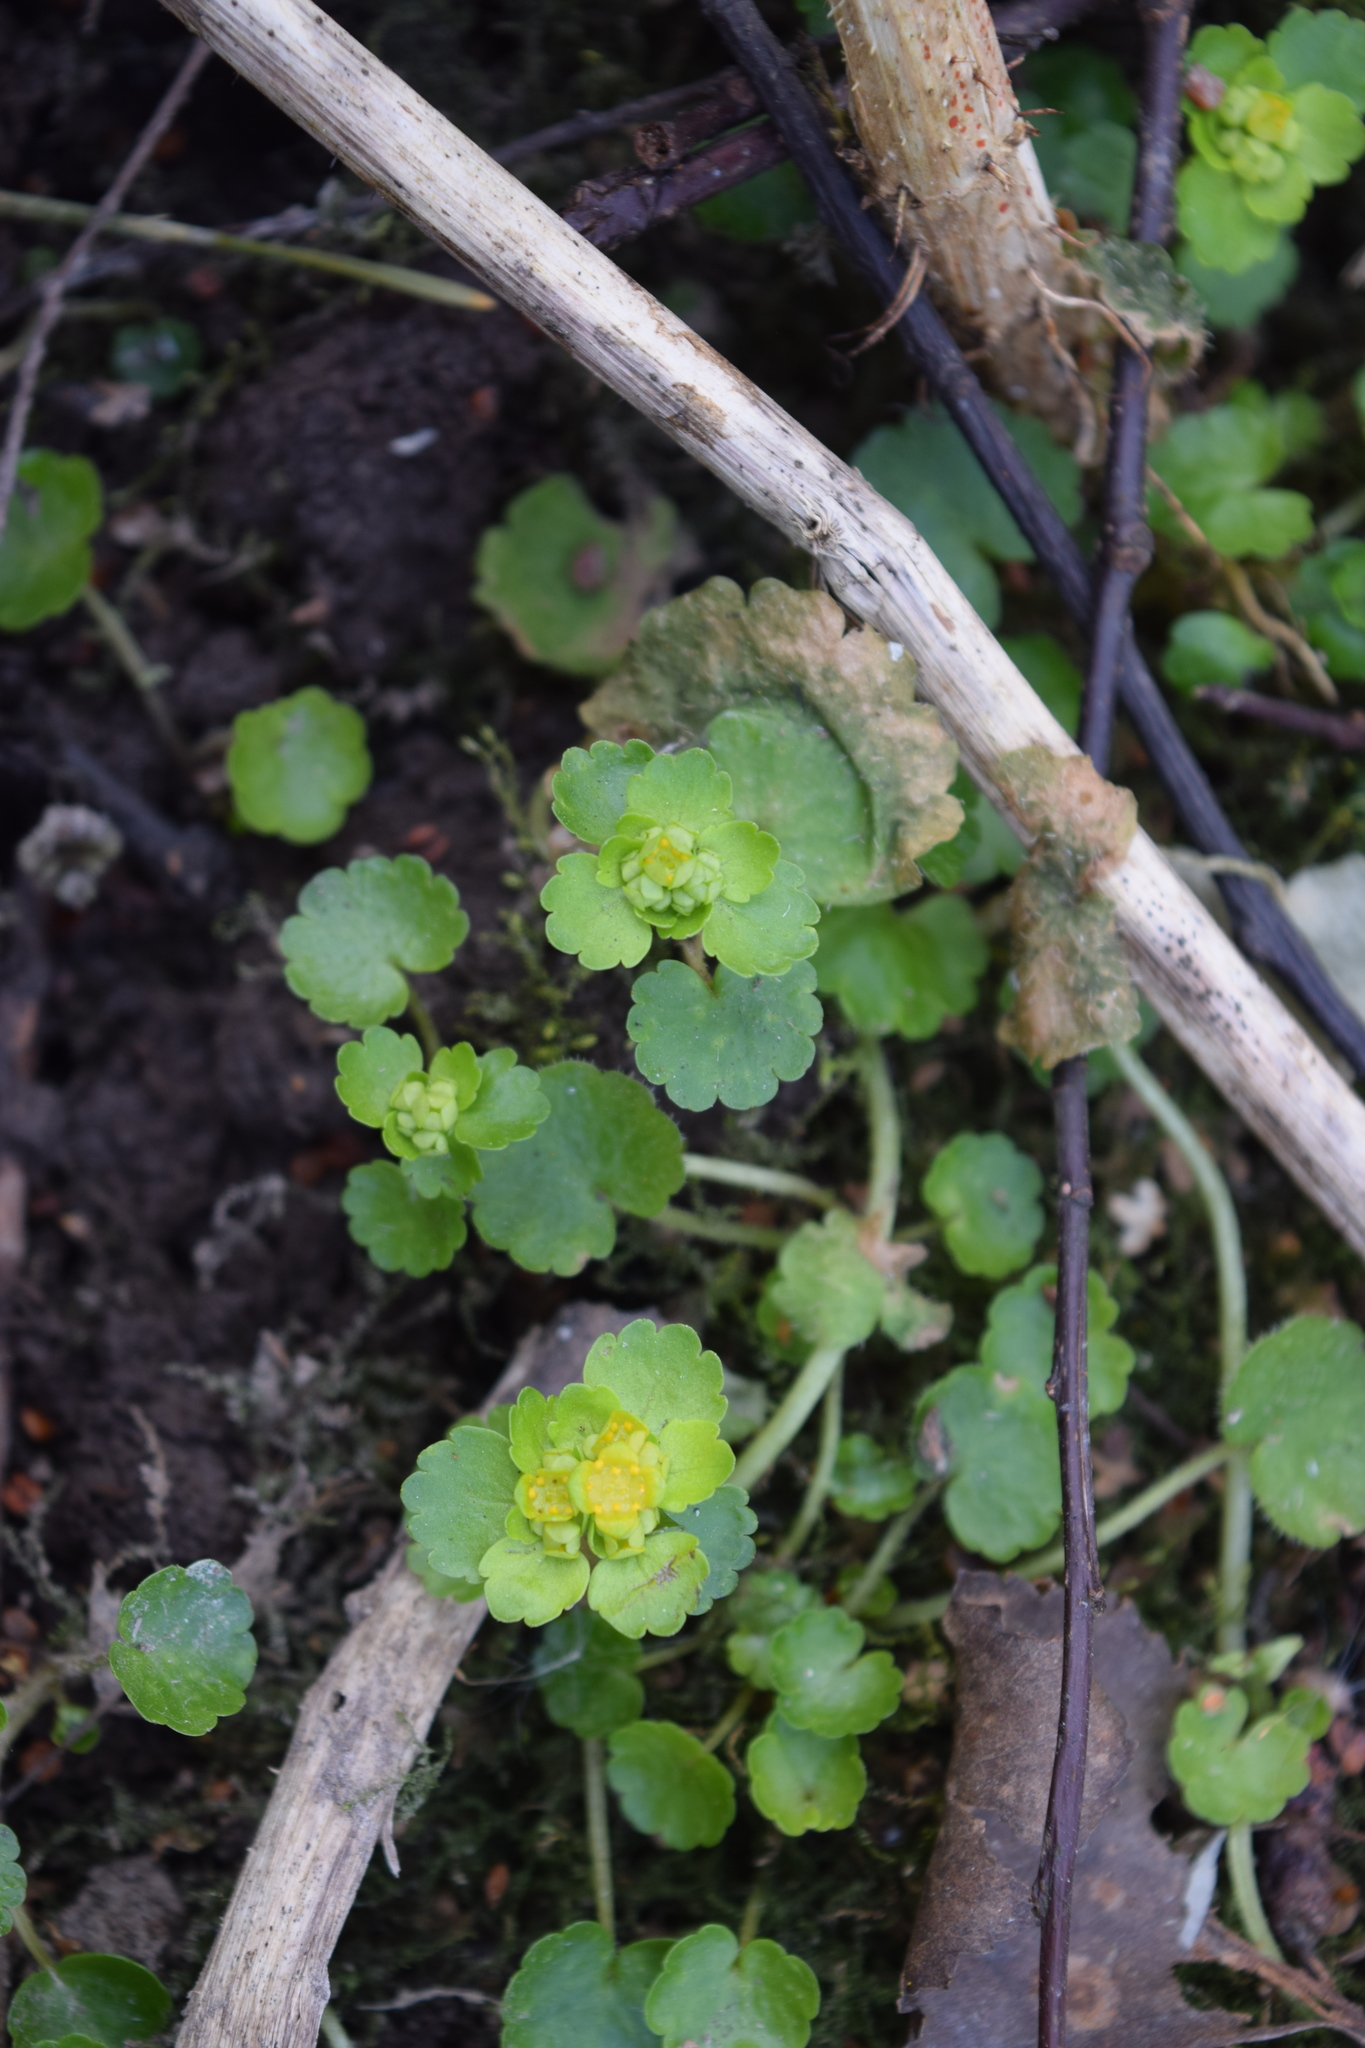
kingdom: Plantae
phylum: Tracheophyta
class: Magnoliopsida
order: Saxifragales
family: Saxifragaceae
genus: Chrysosplenium
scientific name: Chrysosplenium alternifolium
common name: Alternate-leaved golden-saxifrage
